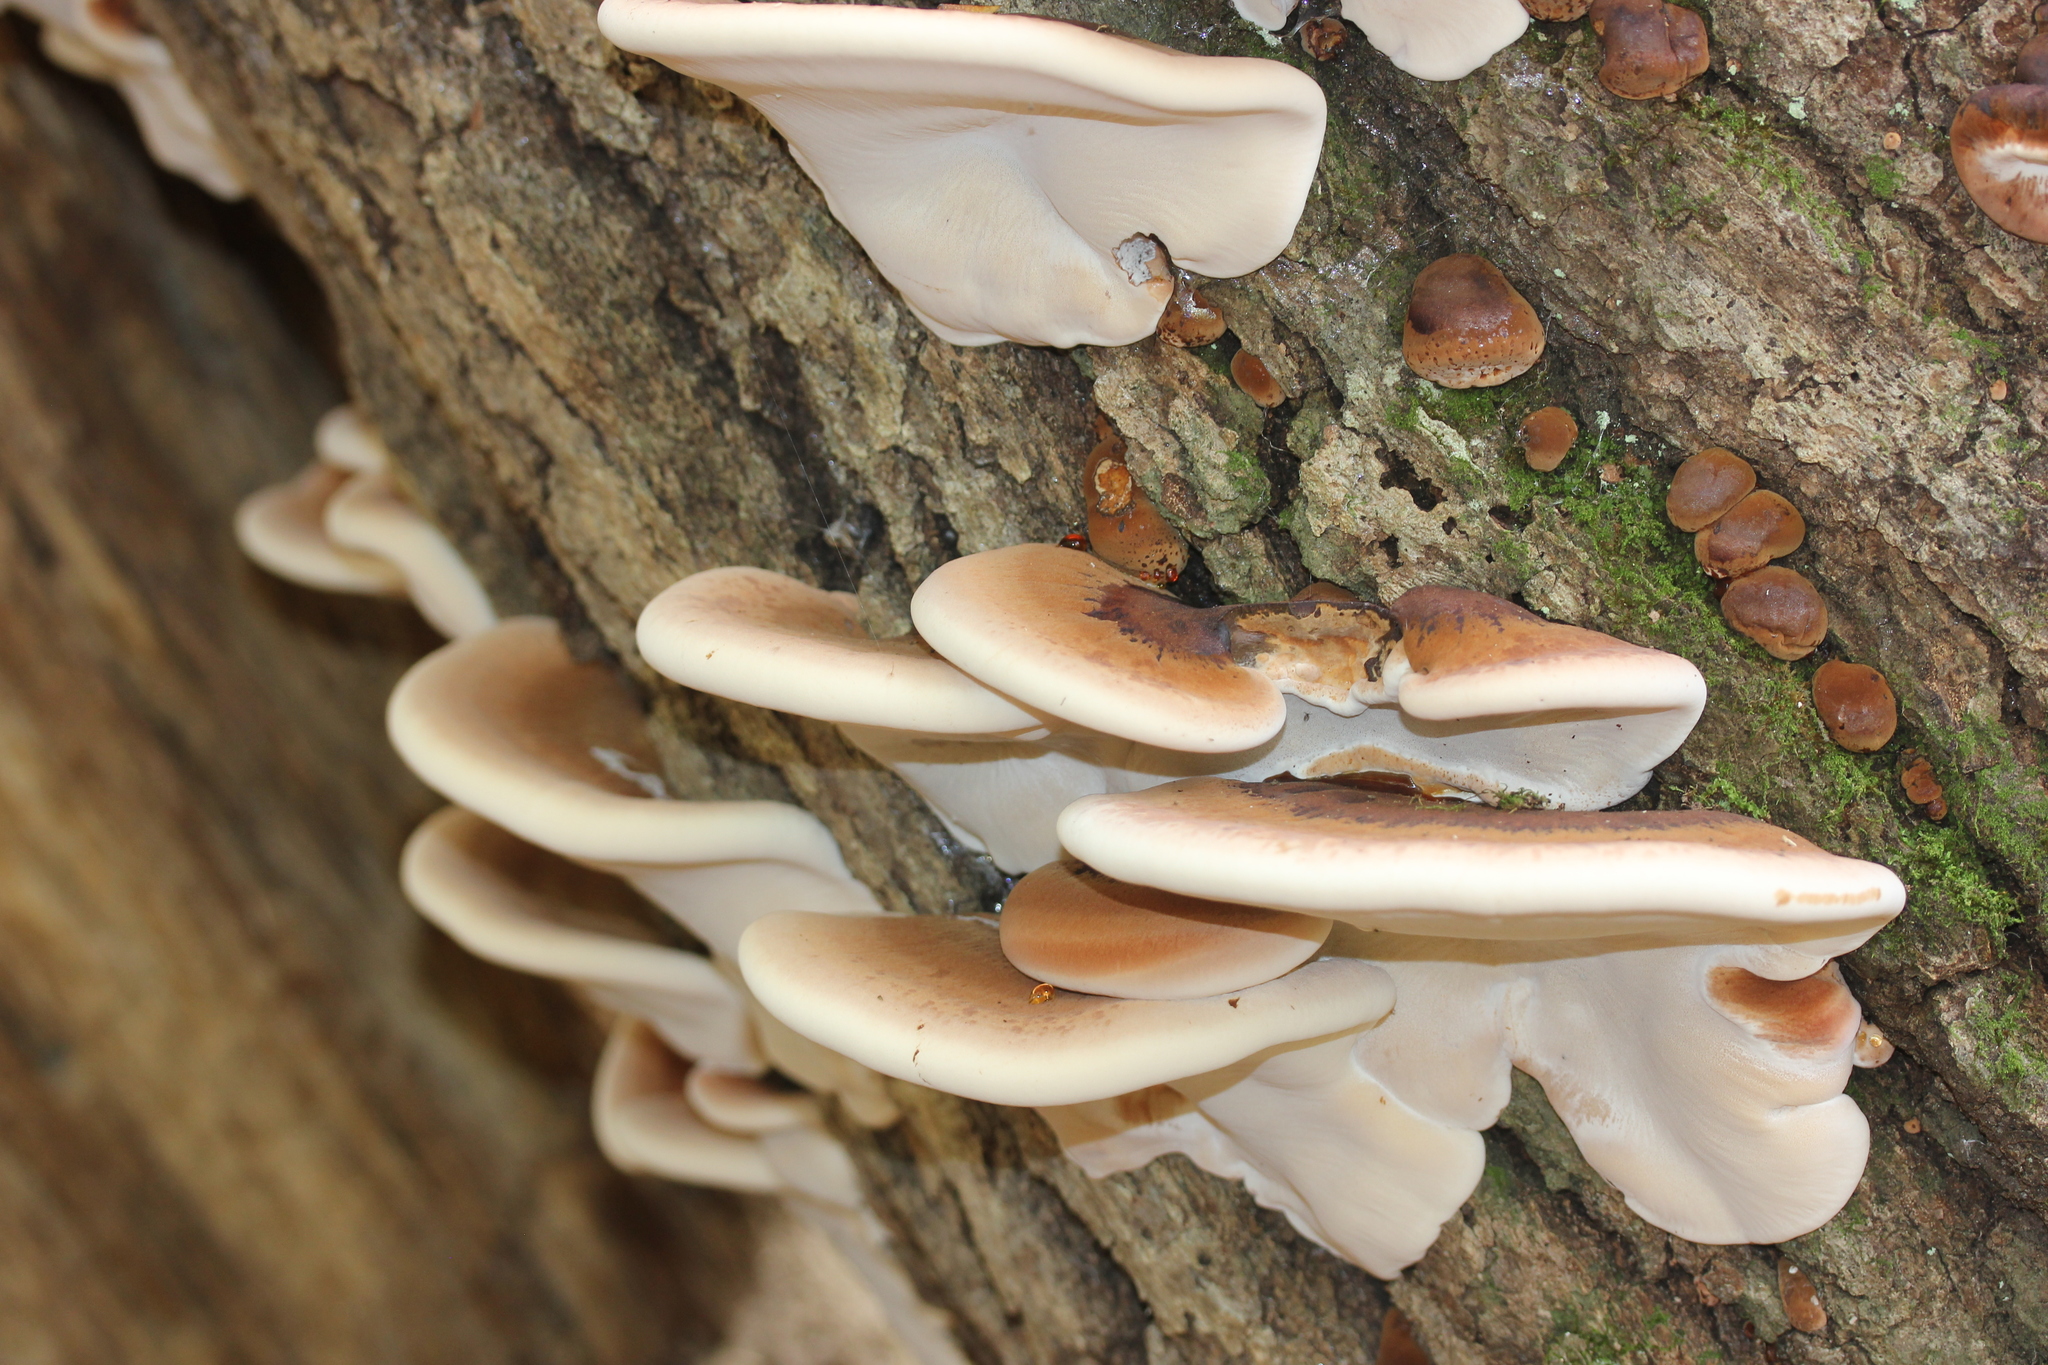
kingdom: Fungi
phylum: Basidiomycota
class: Agaricomycetes
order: Polyporales
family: Ischnodermataceae
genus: Ischnoderma
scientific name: Ischnoderma resinosum
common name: Resinous polypore
